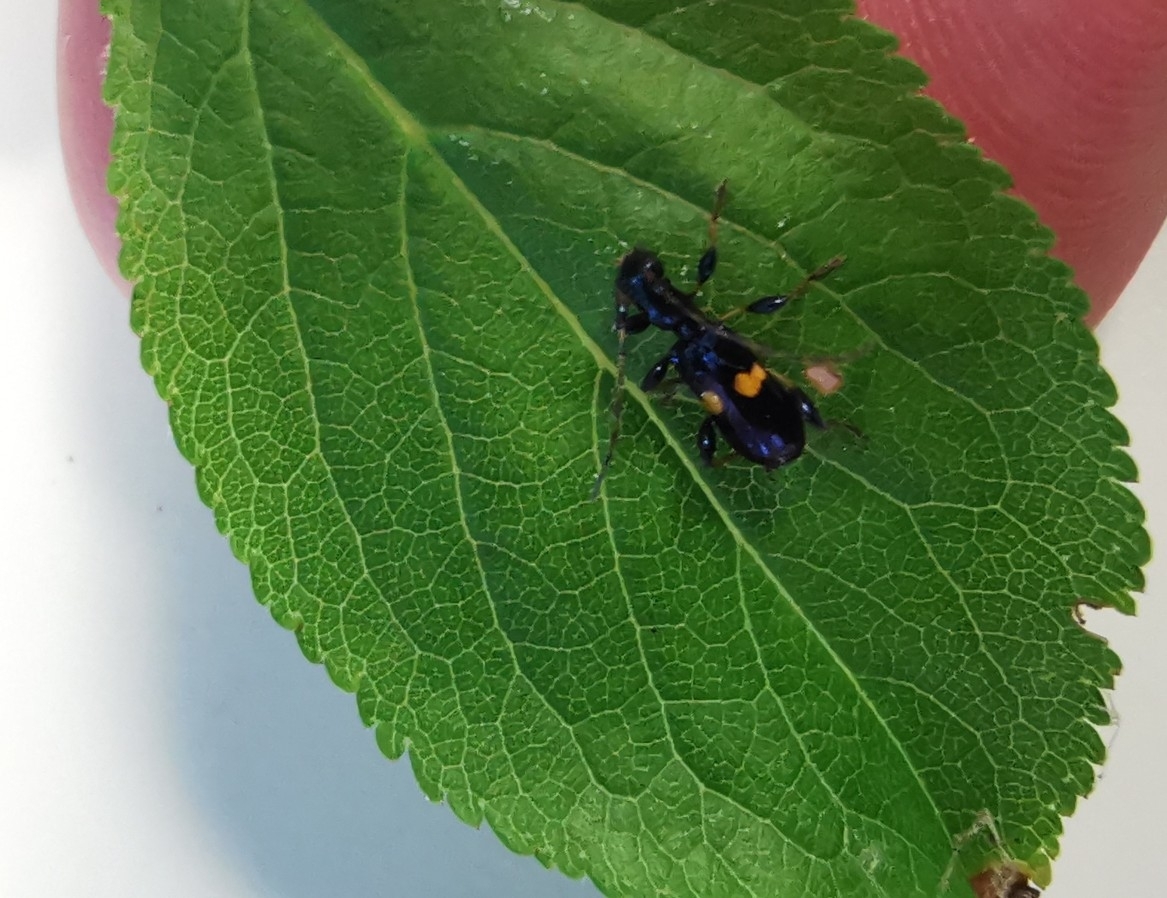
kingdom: Animalia
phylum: Arthropoda
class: Insecta
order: Coleoptera
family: Cerambycidae
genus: Zorion
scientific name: Zorion guttigerum
